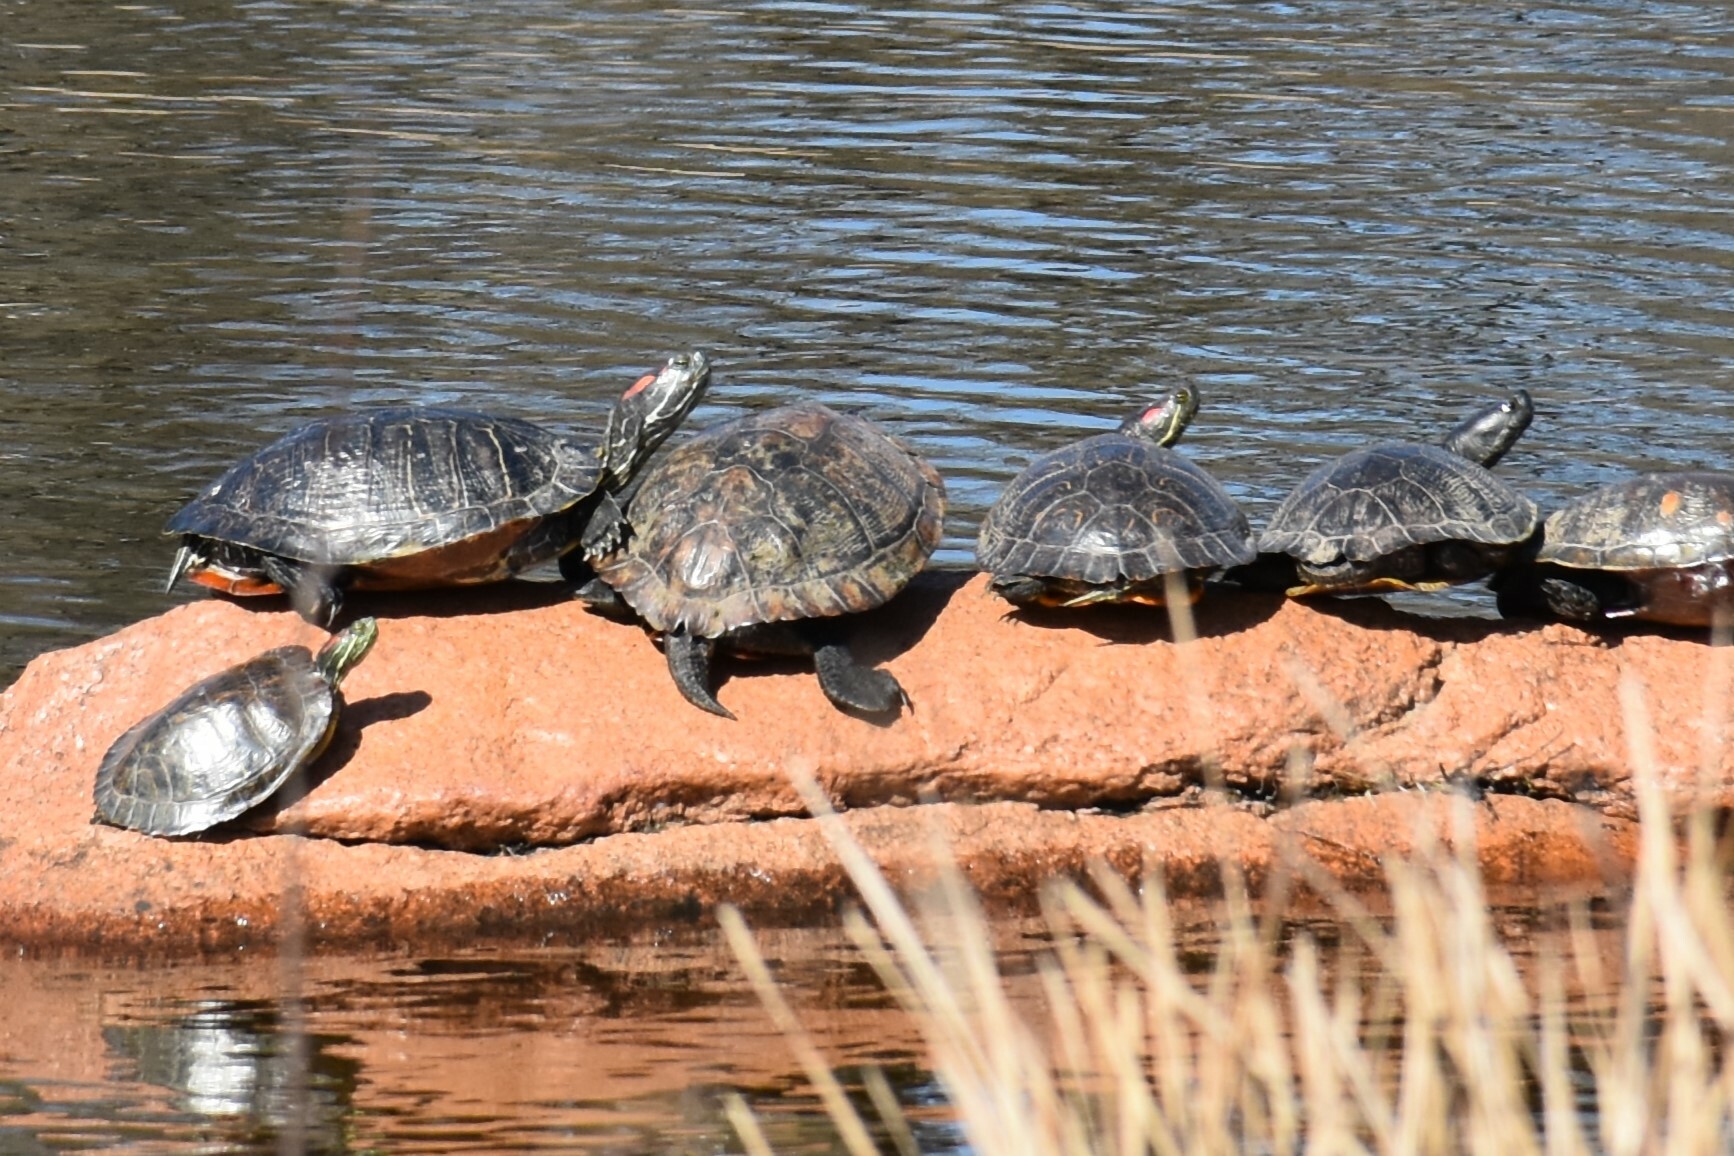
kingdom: Animalia
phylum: Chordata
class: Testudines
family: Emydidae
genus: Trachemys
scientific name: Trachemys scripta
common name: Slider
